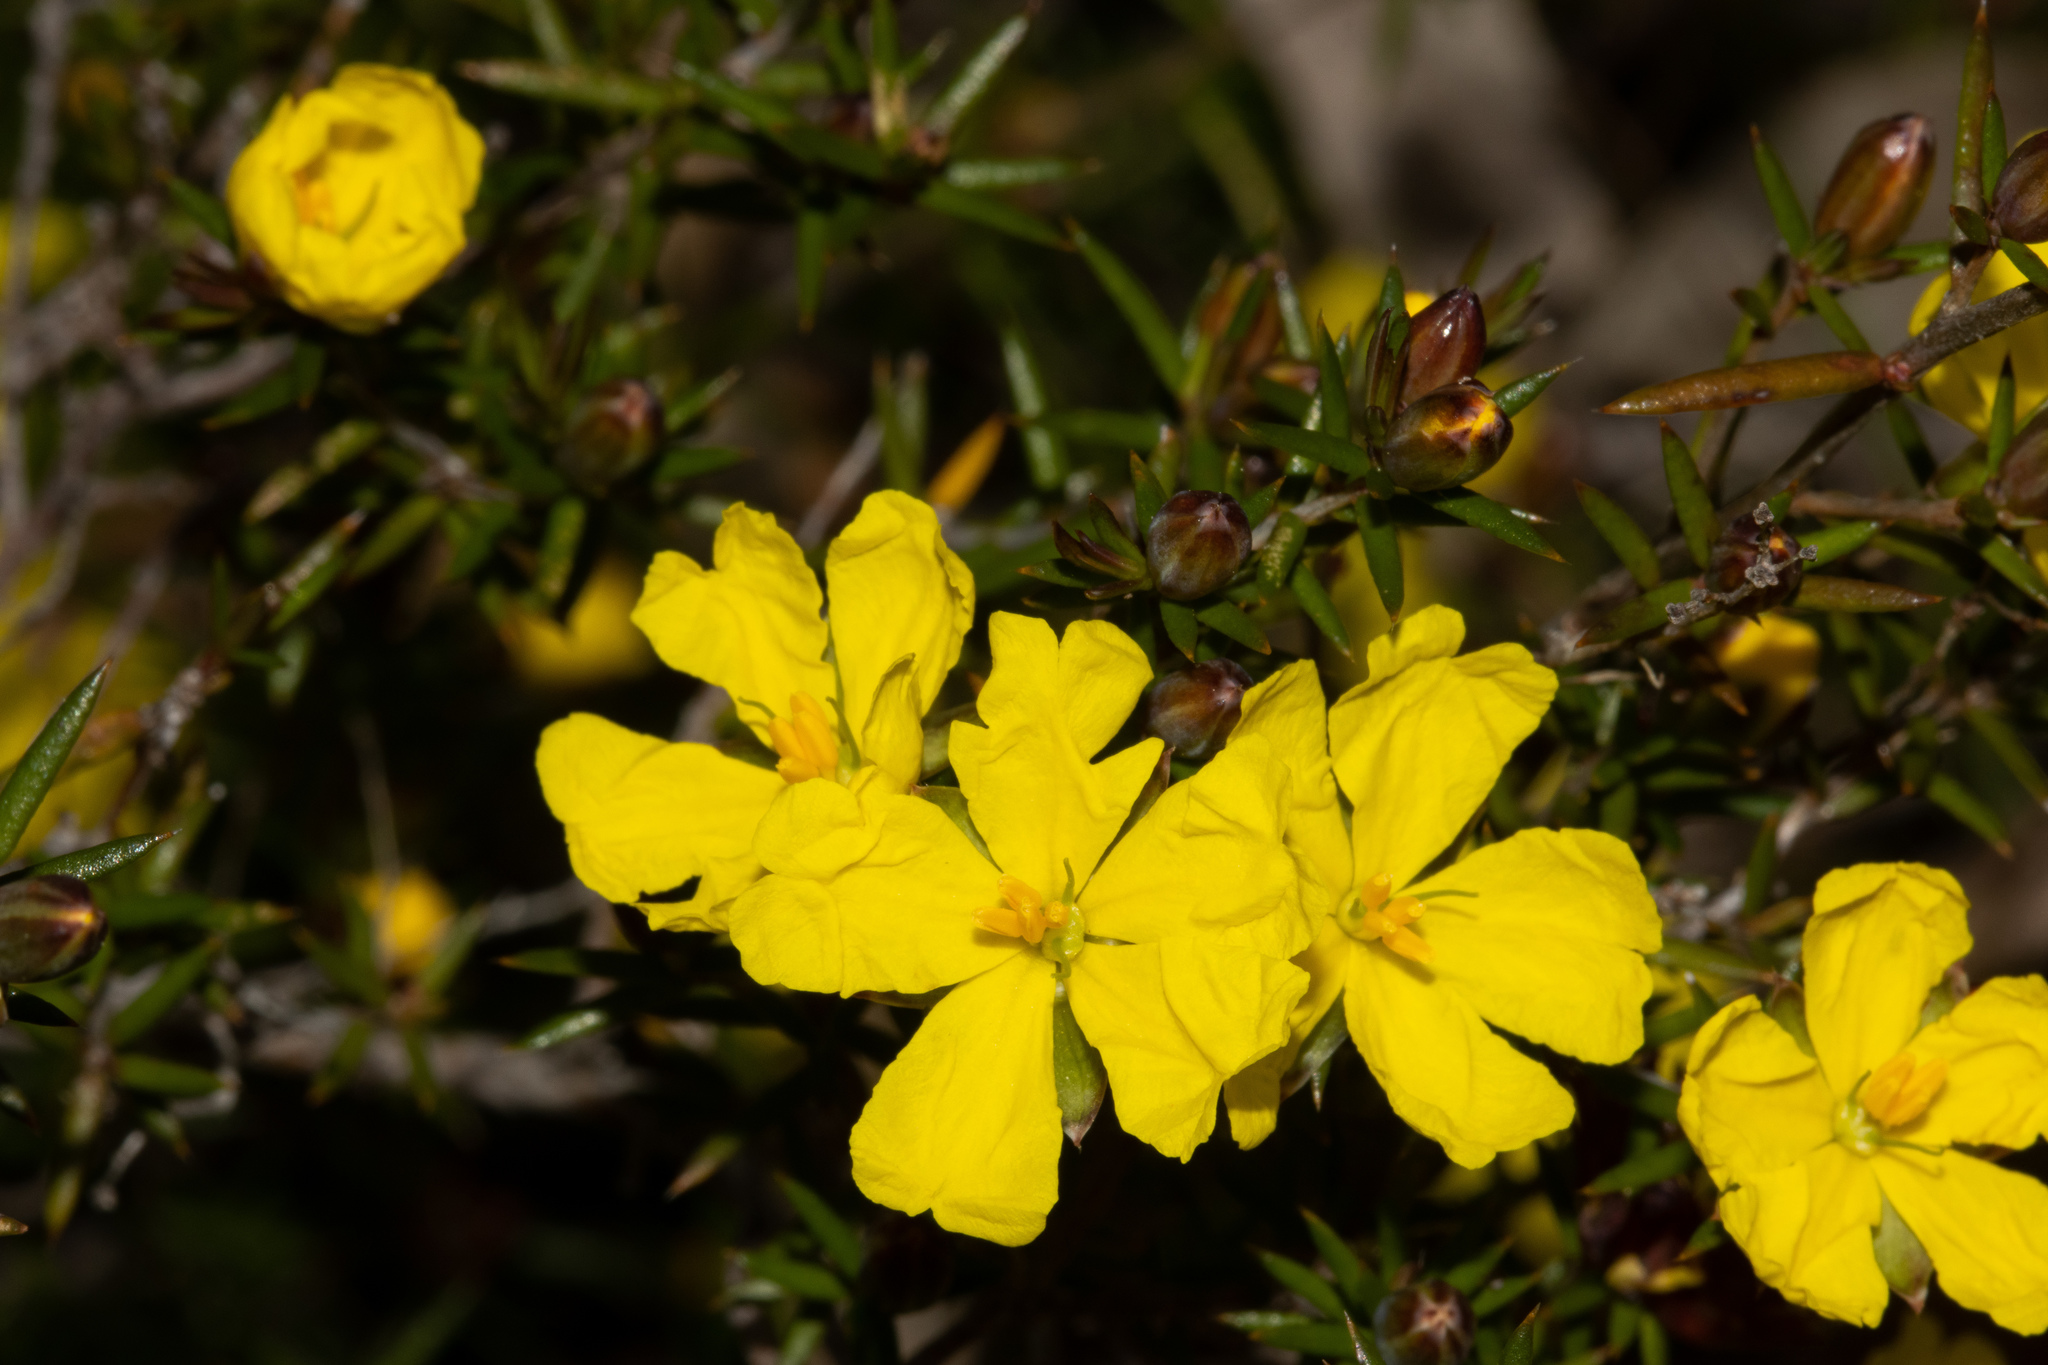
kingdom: Plantae
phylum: Tracheophyta
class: Magnoliopsida
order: Dilleniales
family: Dilleniaceae
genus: Hibbertia
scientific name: Hibbertia exutiacies
